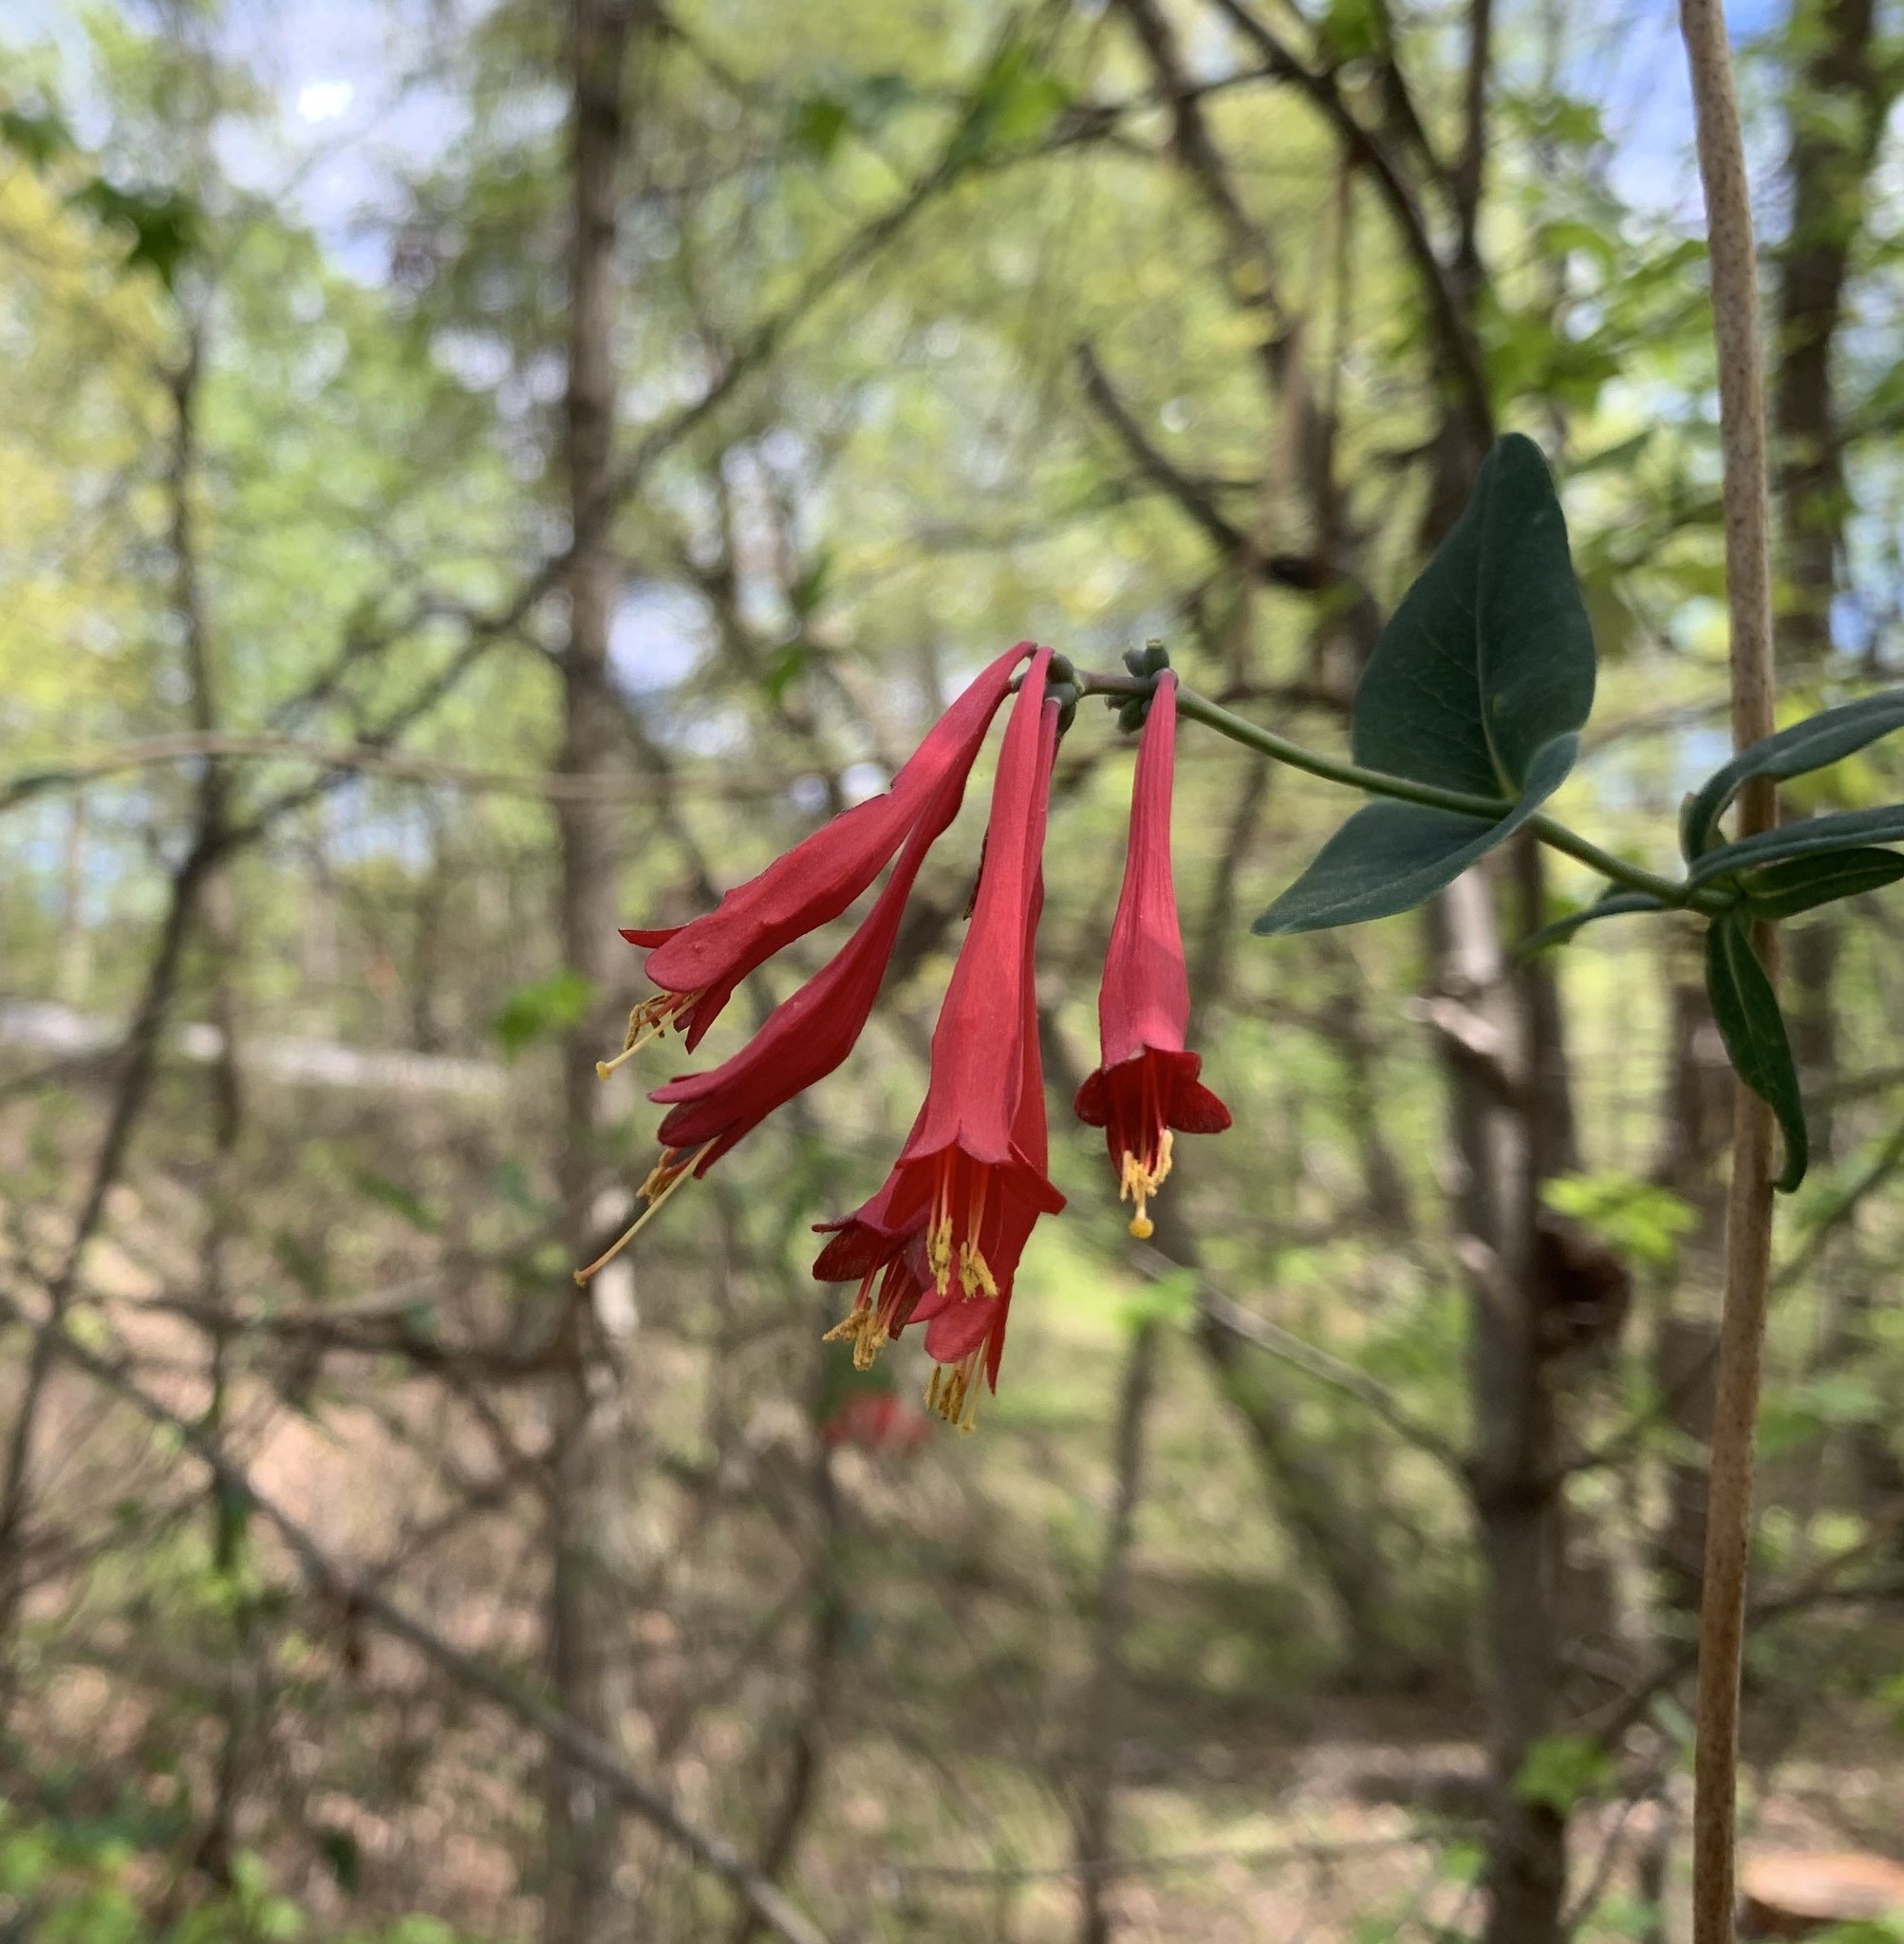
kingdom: Plantae
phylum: Tracheophyta
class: Magnoliopsida
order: Dipsacales
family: Caprifoliaceae
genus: Lonicera
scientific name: Lonicera sempervirens
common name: Coral honeysuckle
